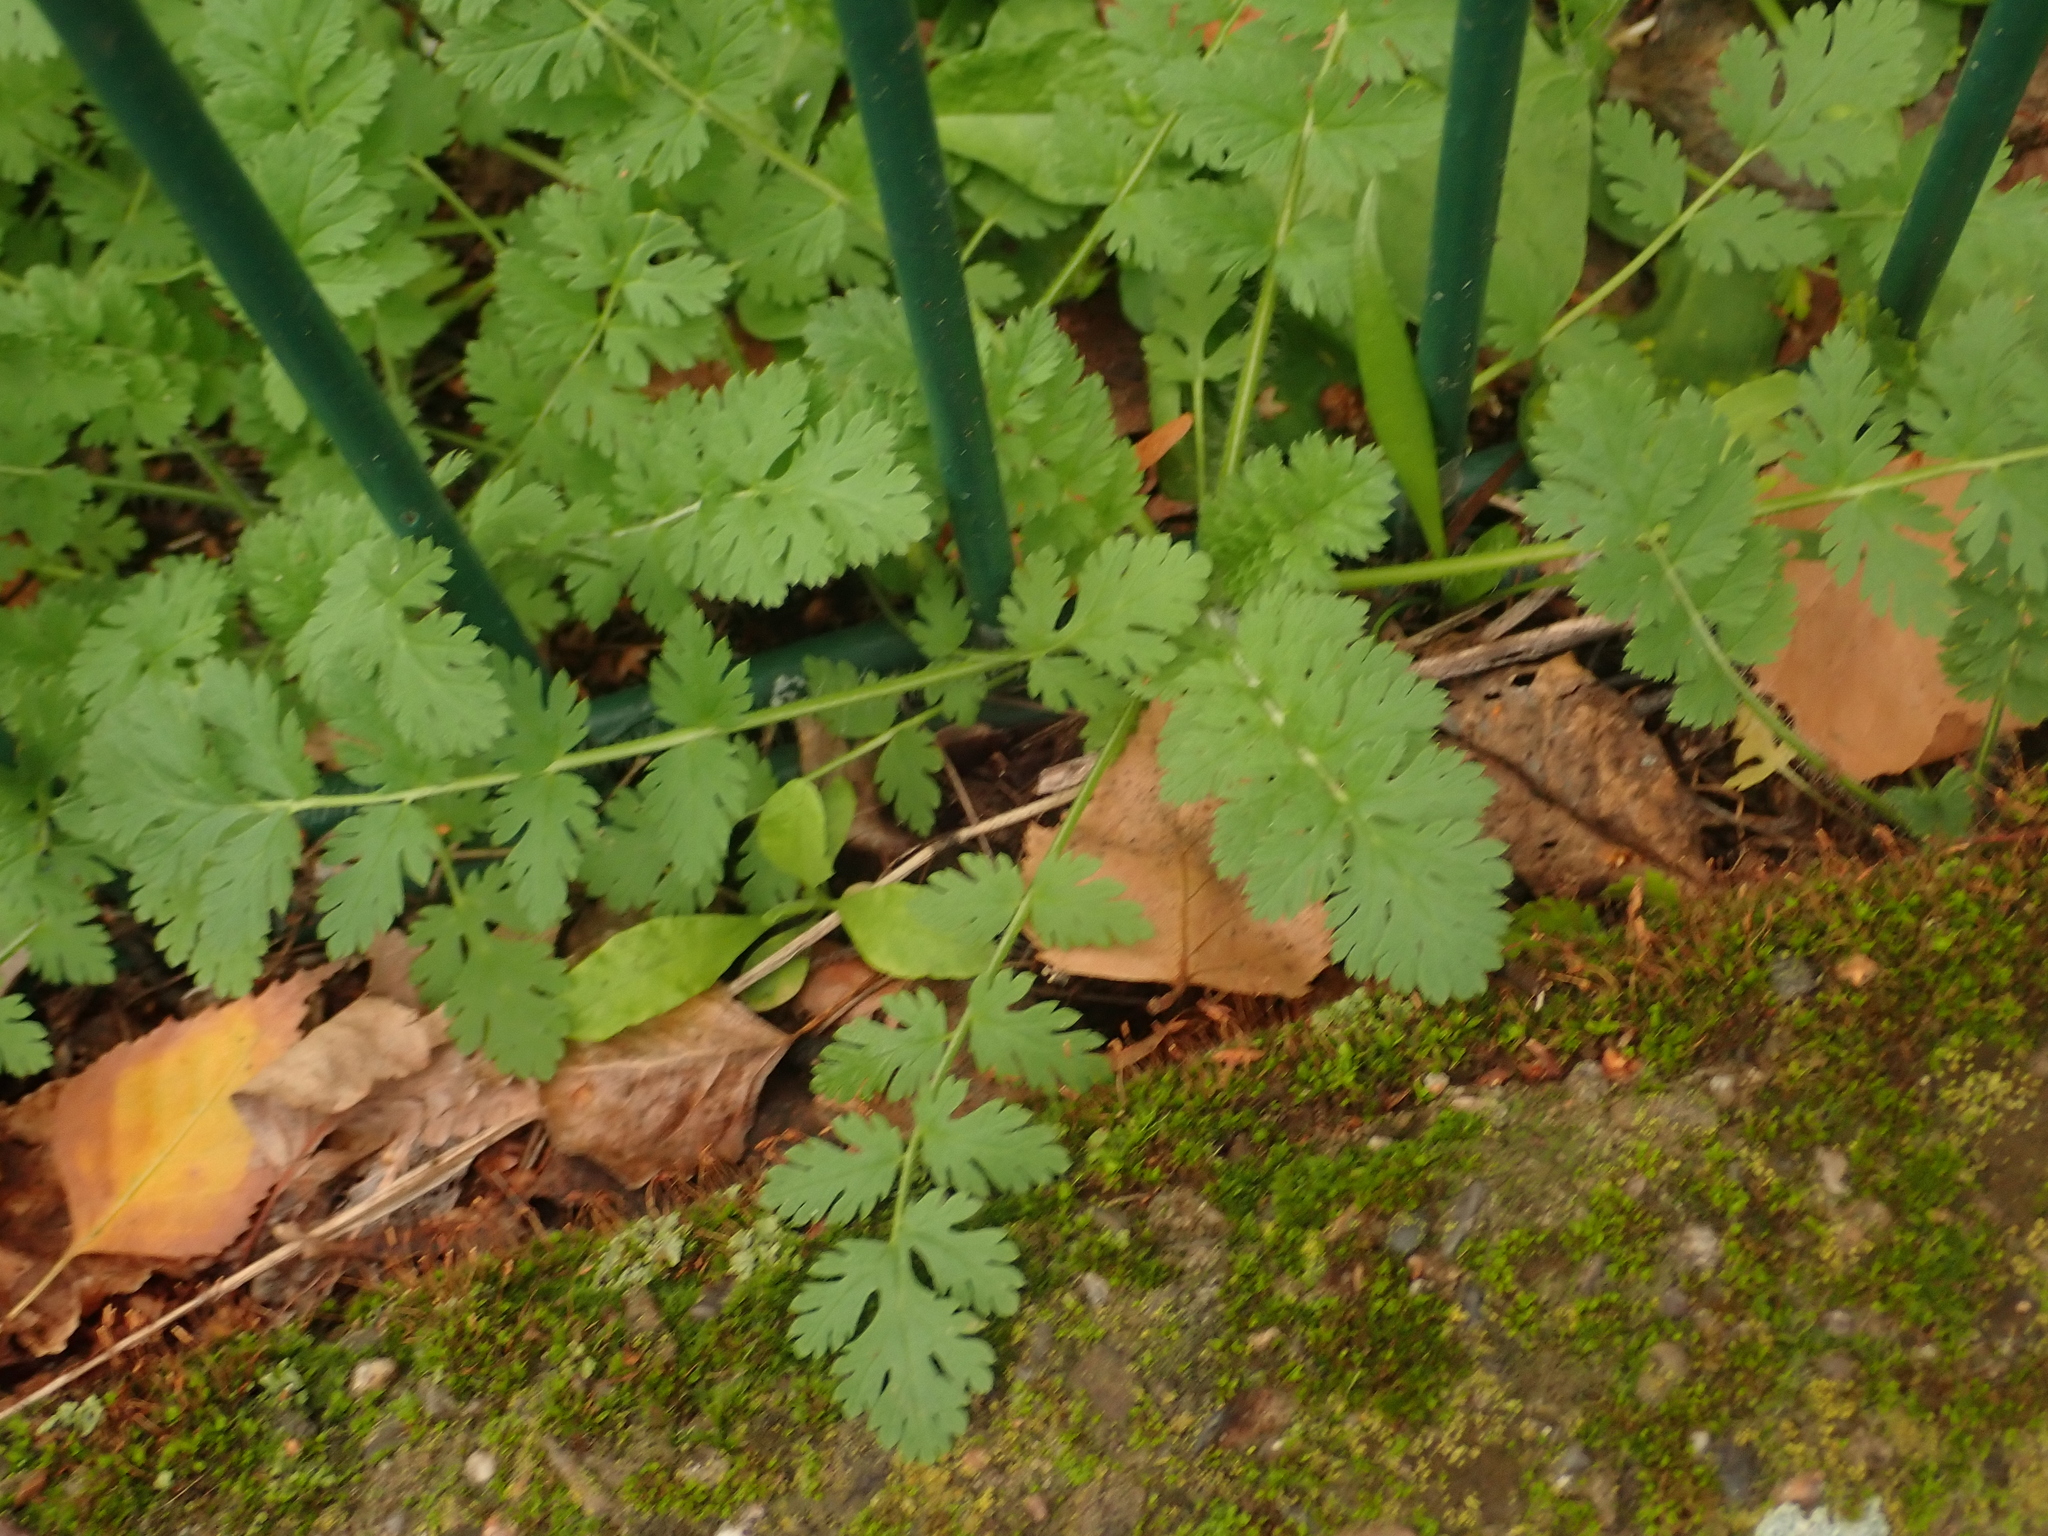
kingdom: Plantae
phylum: Tracheophyta
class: Magnoliopsida
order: Geraniales
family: Geraniaceae
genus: Erodium
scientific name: Erodium cicutarium
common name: Common stork's-bill
